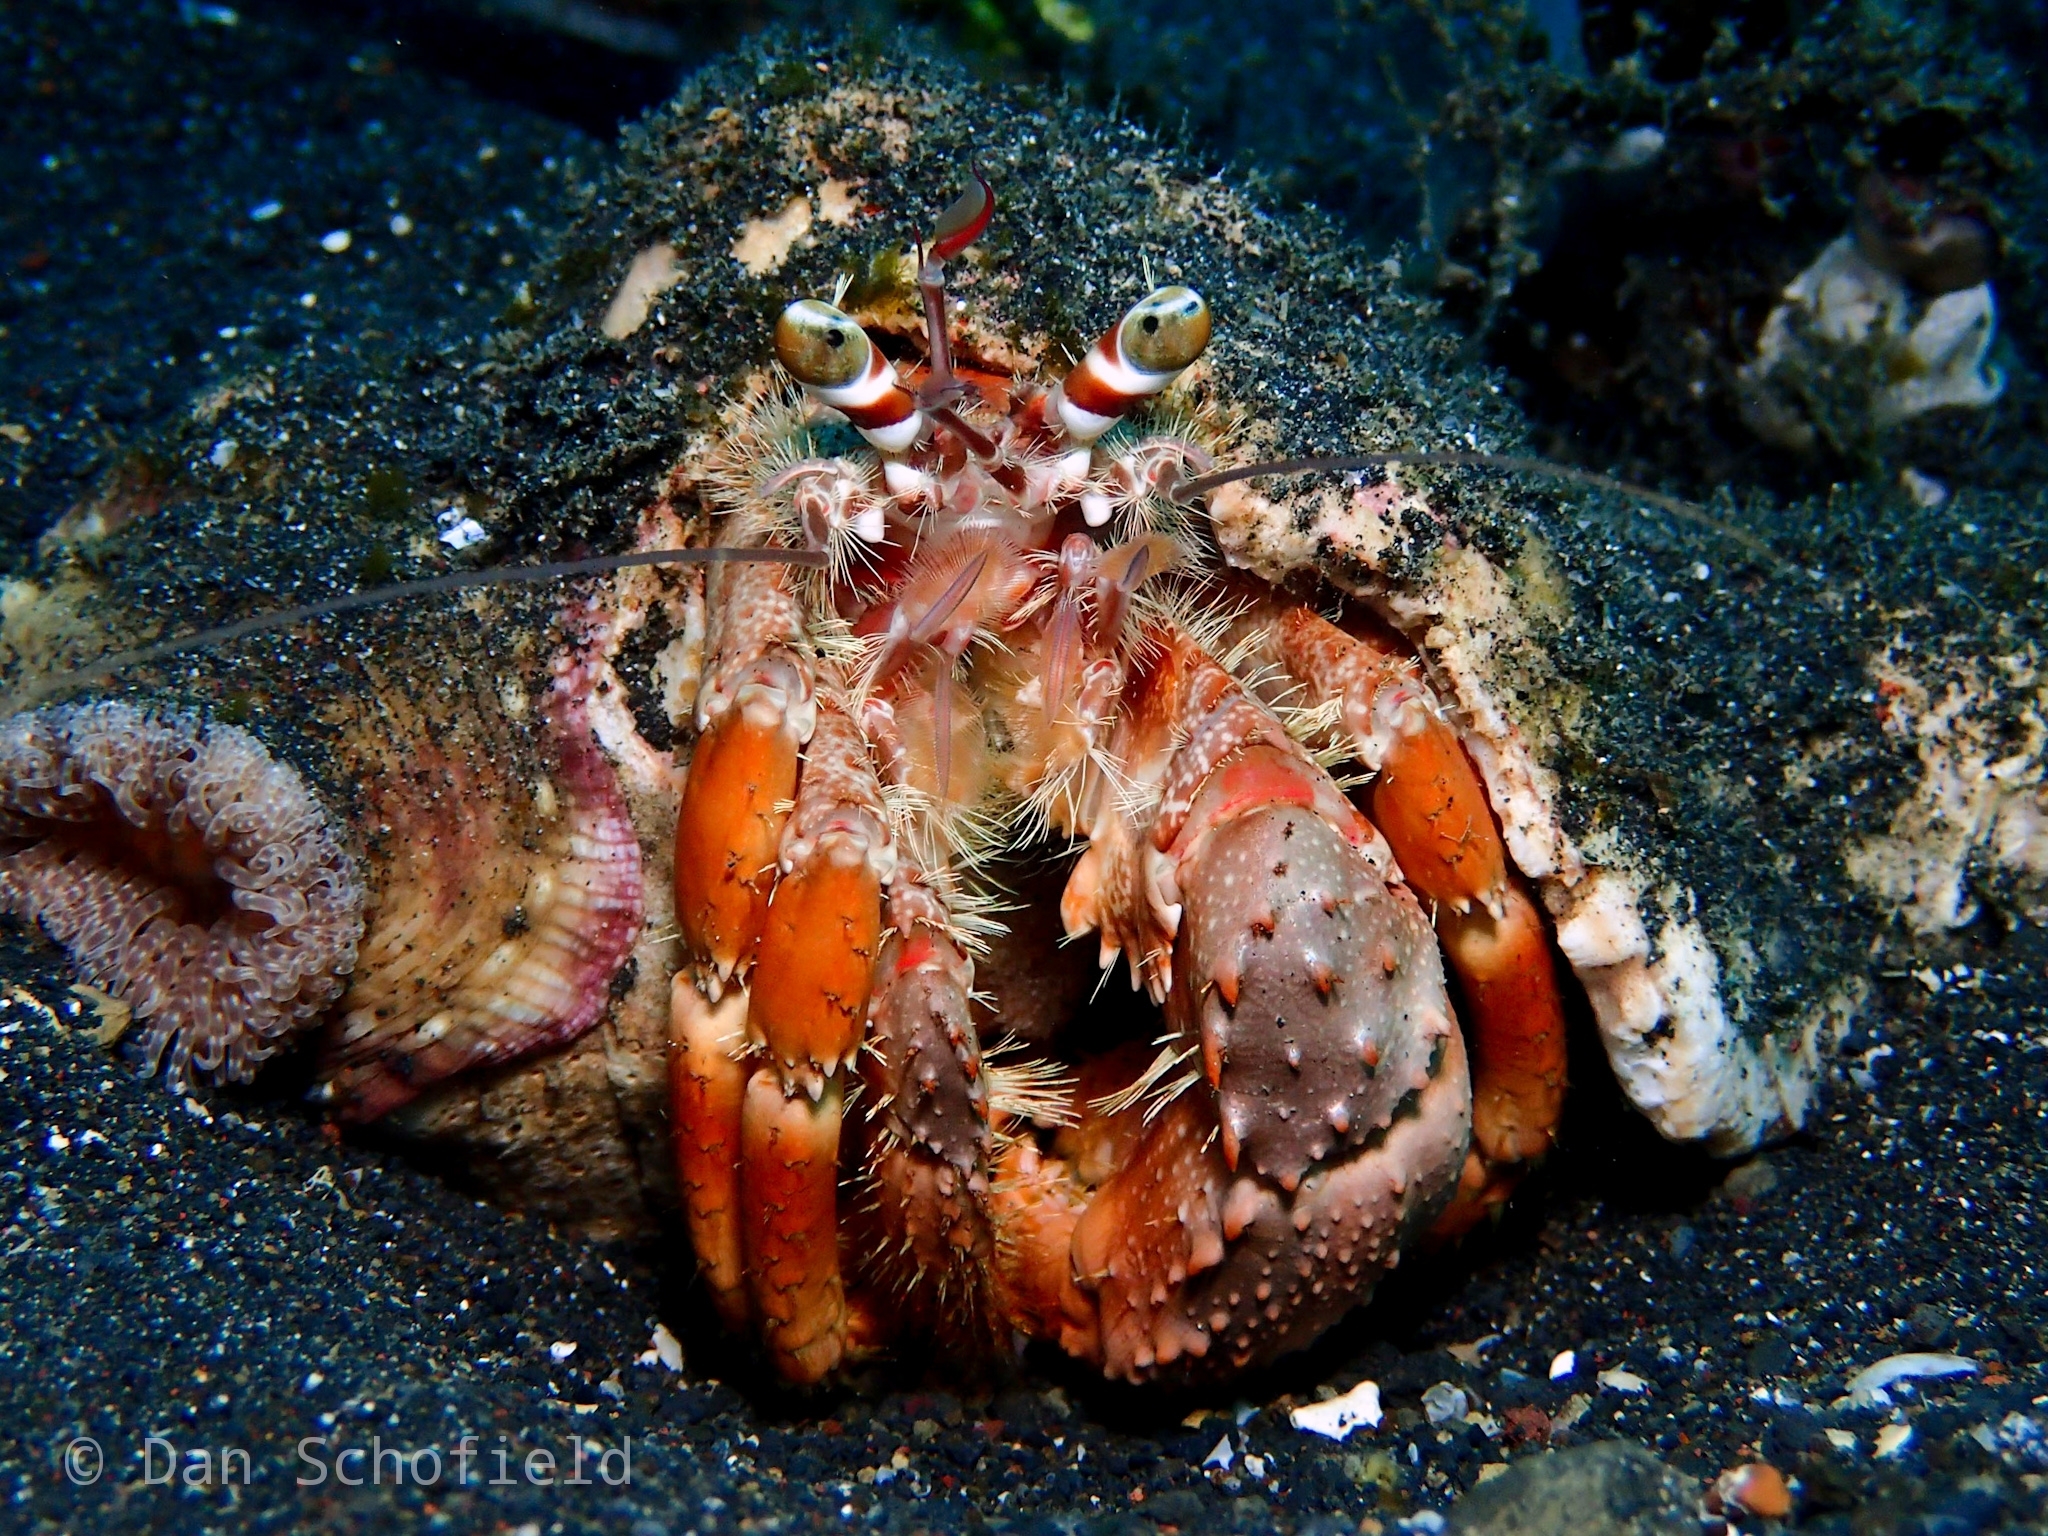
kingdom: Animalia
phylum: Arthropoda
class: Malacostraca
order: Decapoda
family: Diogenidae
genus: Dardanus
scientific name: Dardanus pedunculatus
